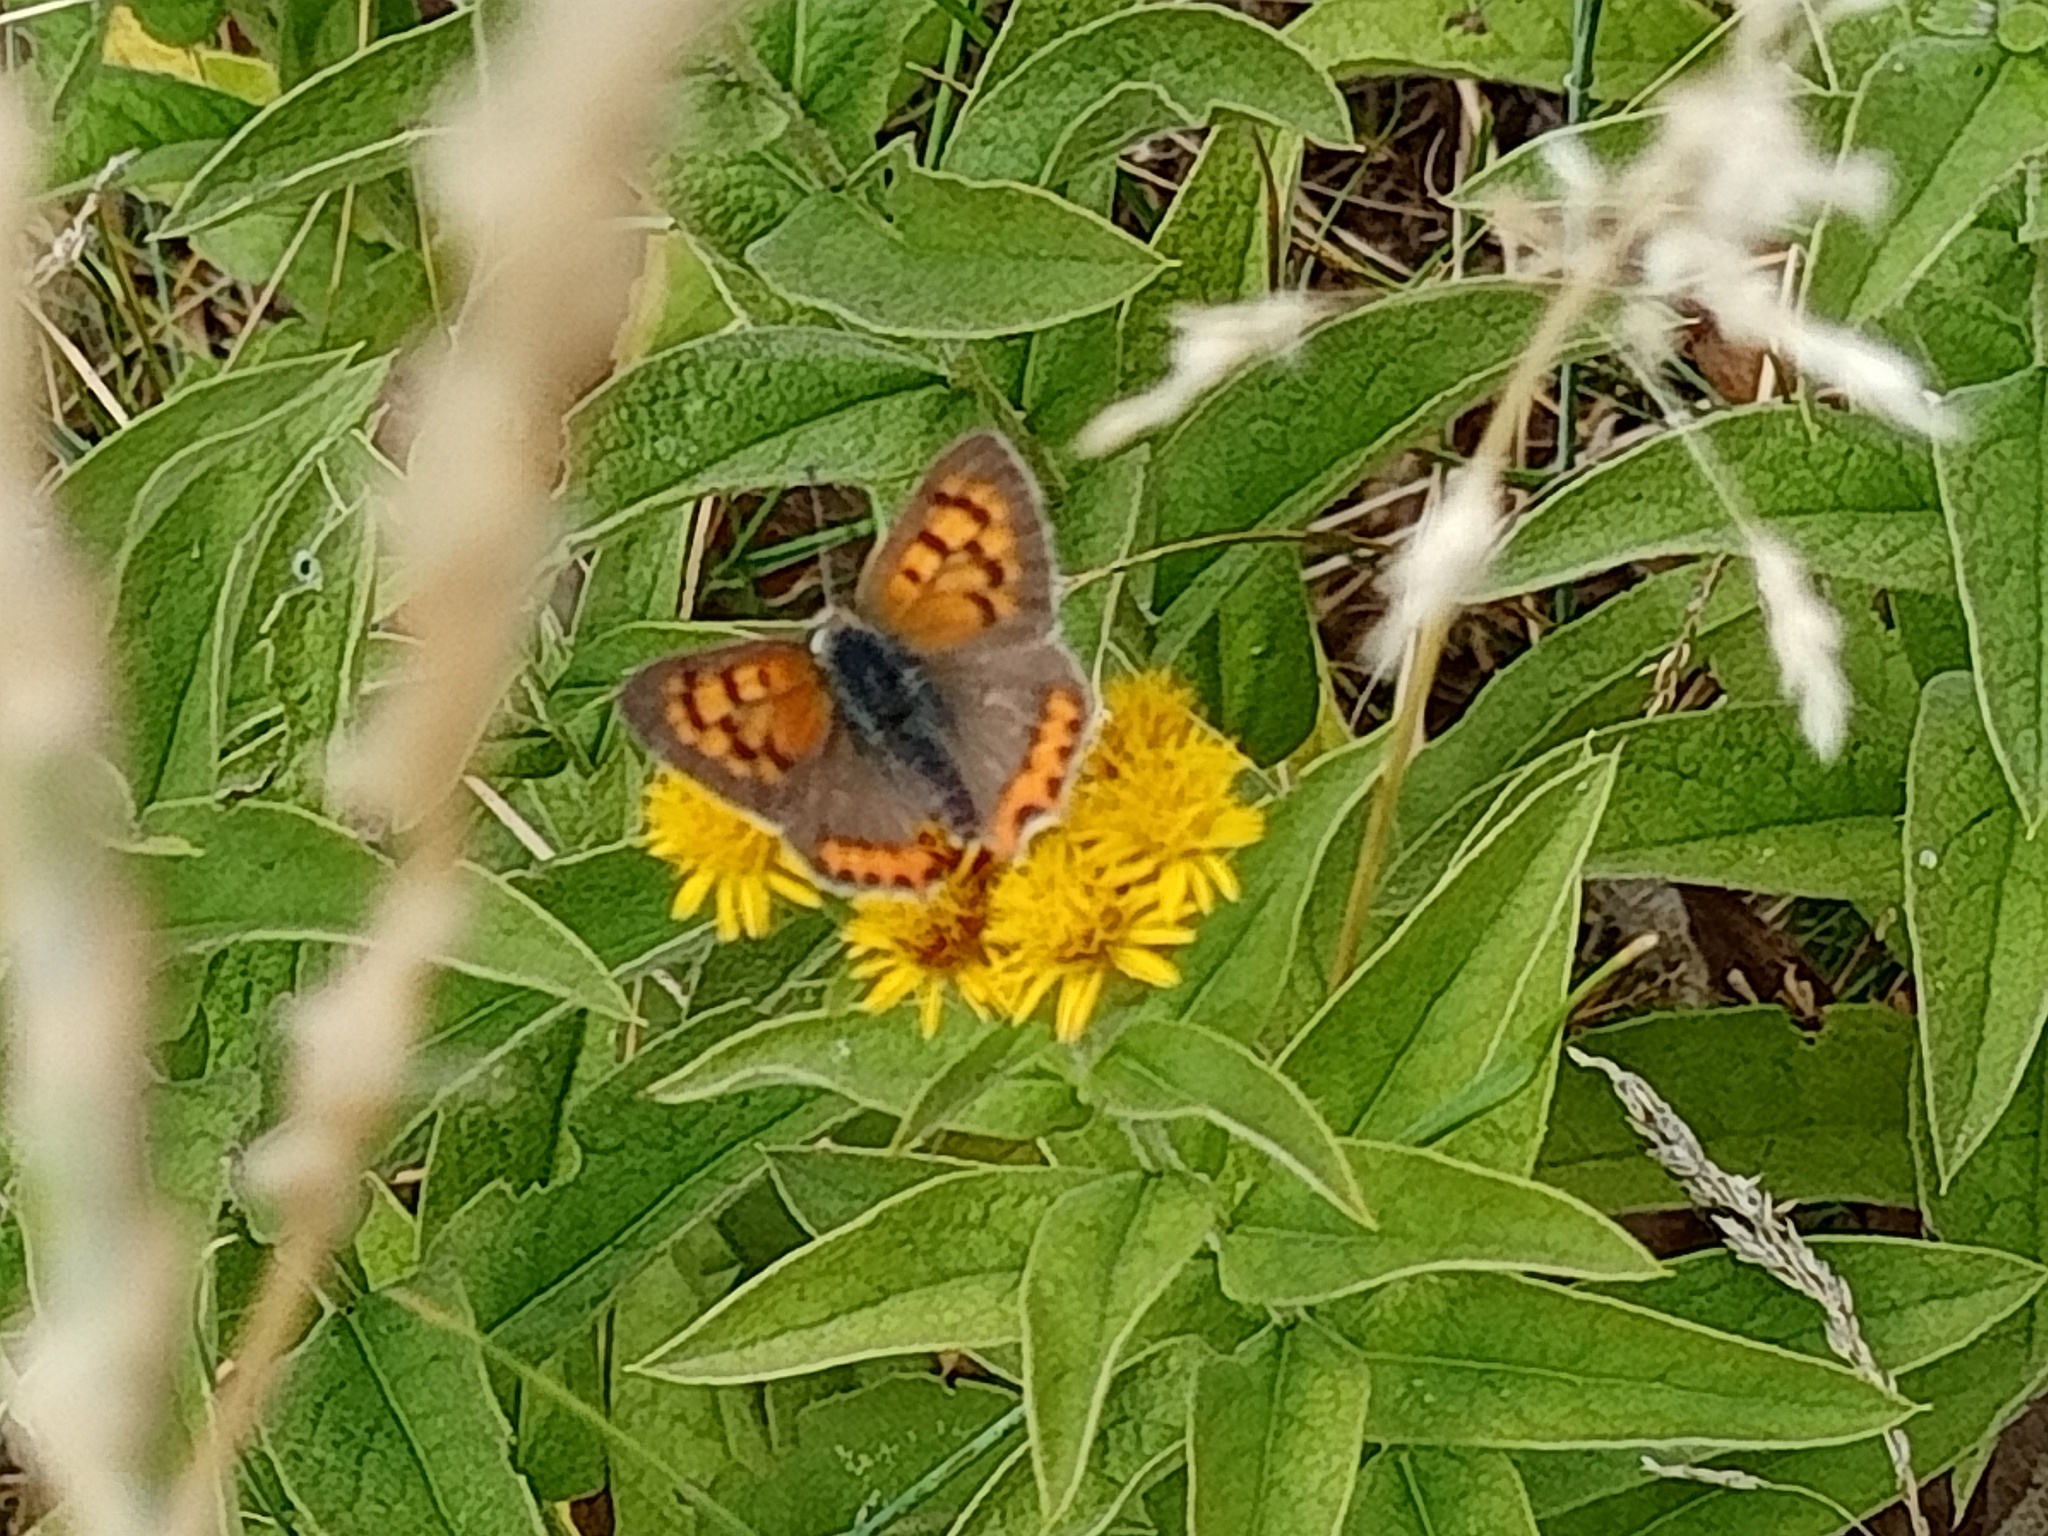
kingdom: Animalia
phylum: Arthropoda
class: Insecta
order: Lepidoptera
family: Lycaenidae
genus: Lycaena
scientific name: Lycaena phlaeas
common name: Small copper
